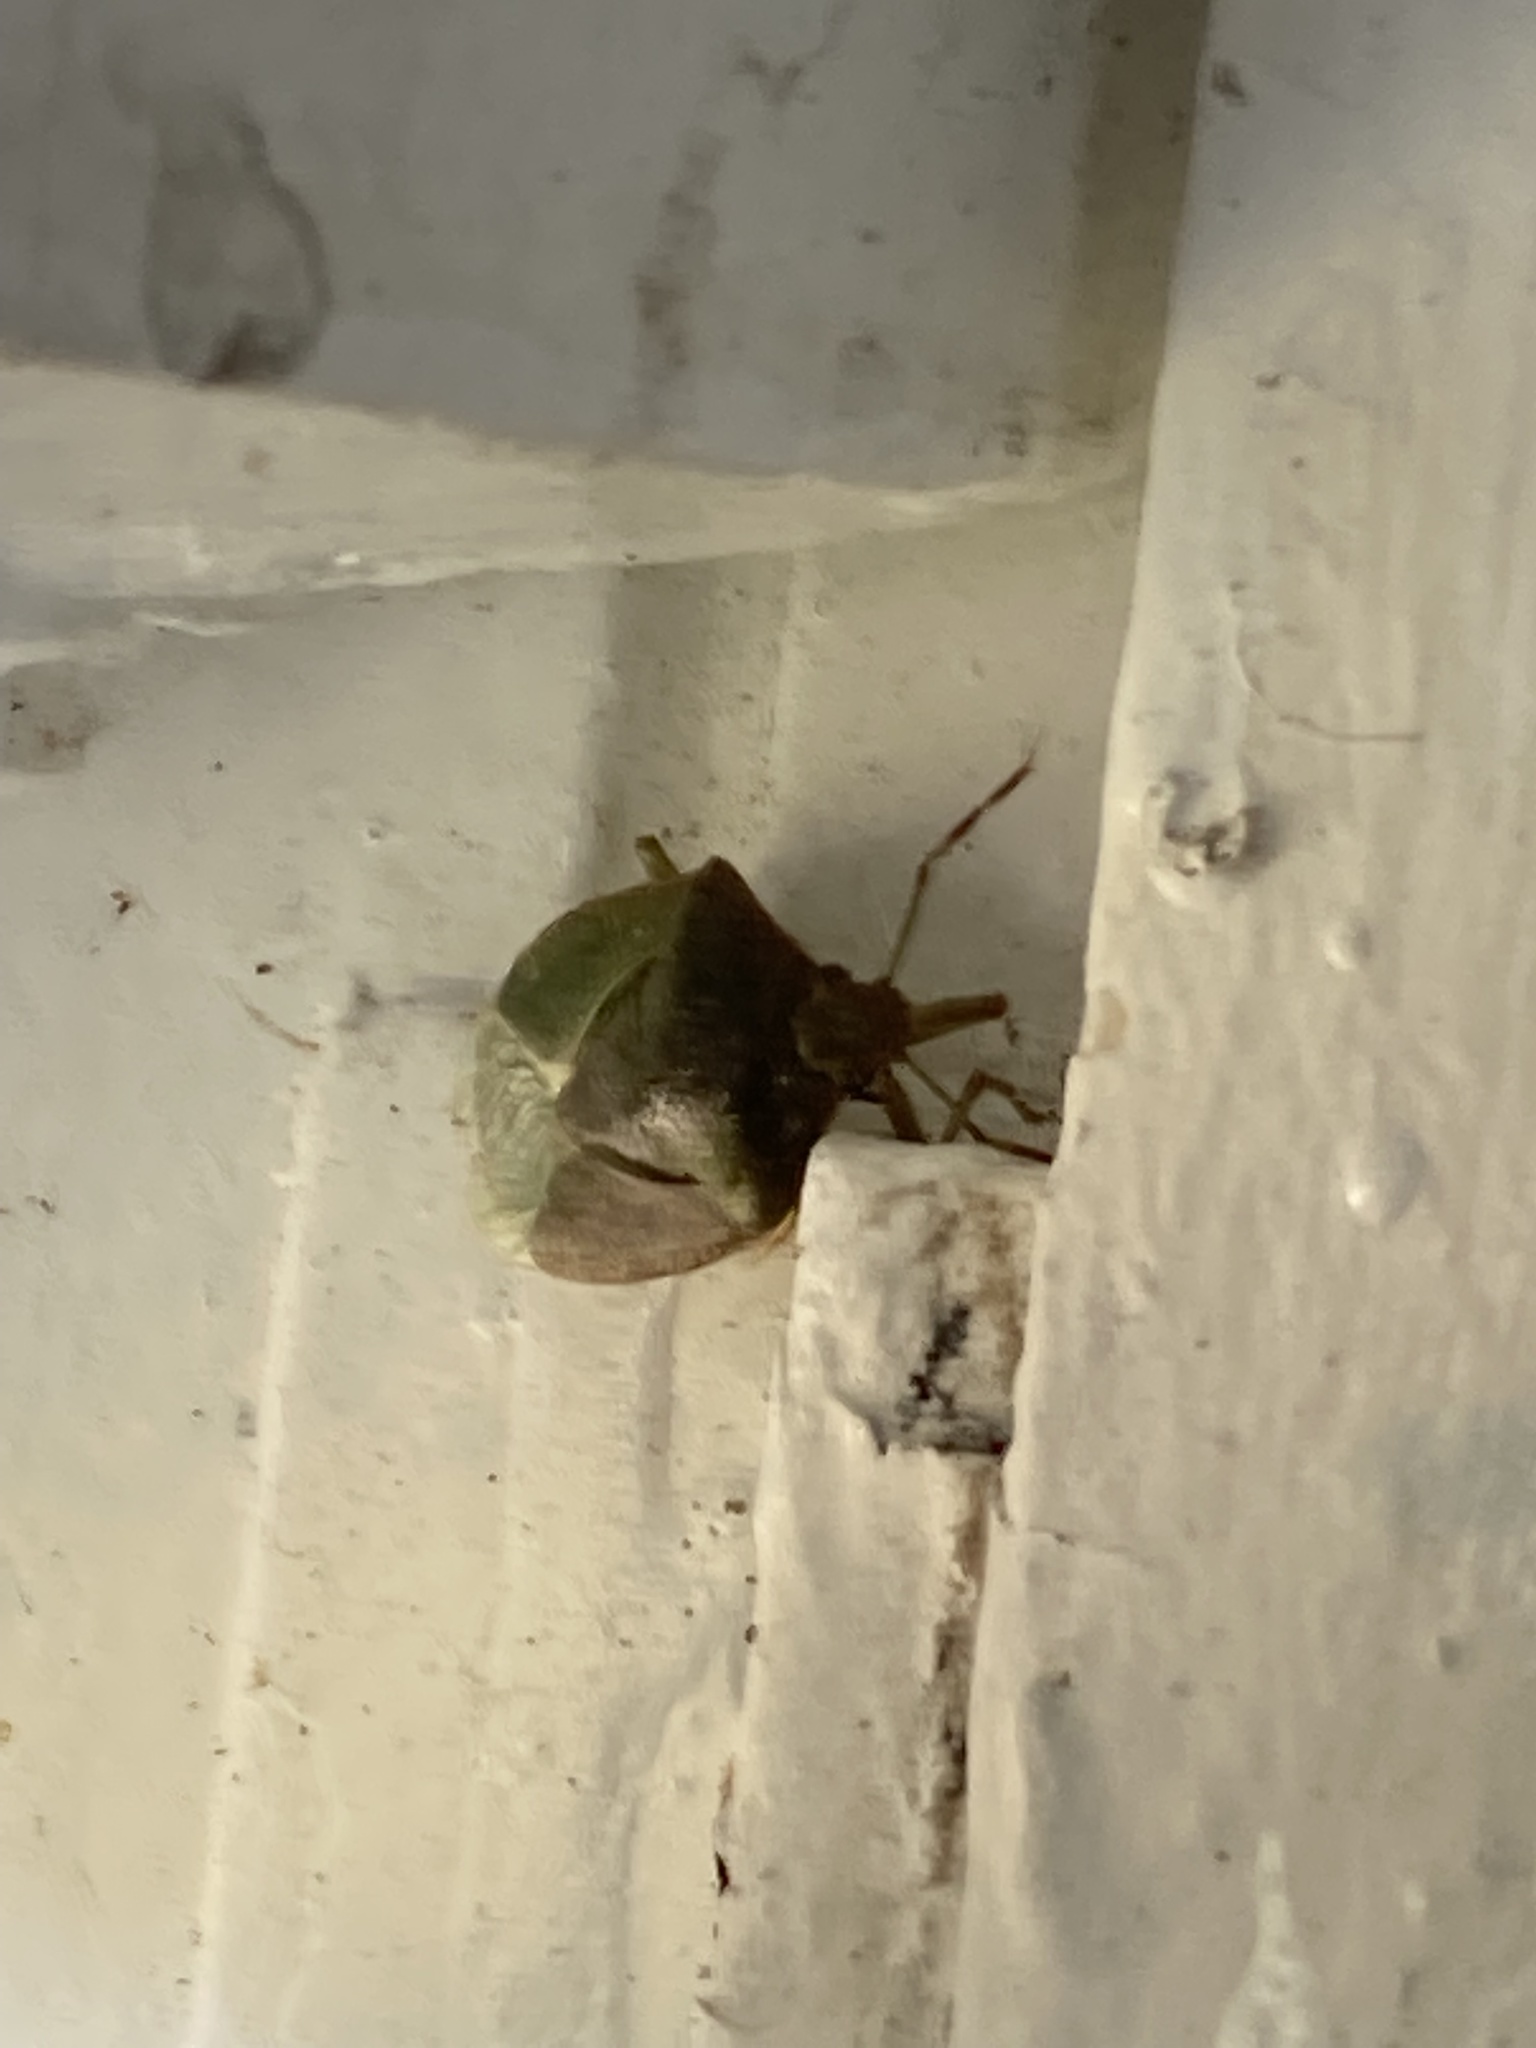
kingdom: Animalia
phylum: Arthropoda
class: Insecta
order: Hemiptera
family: Pentatomidae
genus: Nezara
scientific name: Nezara viridula
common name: Southern green stink bug
